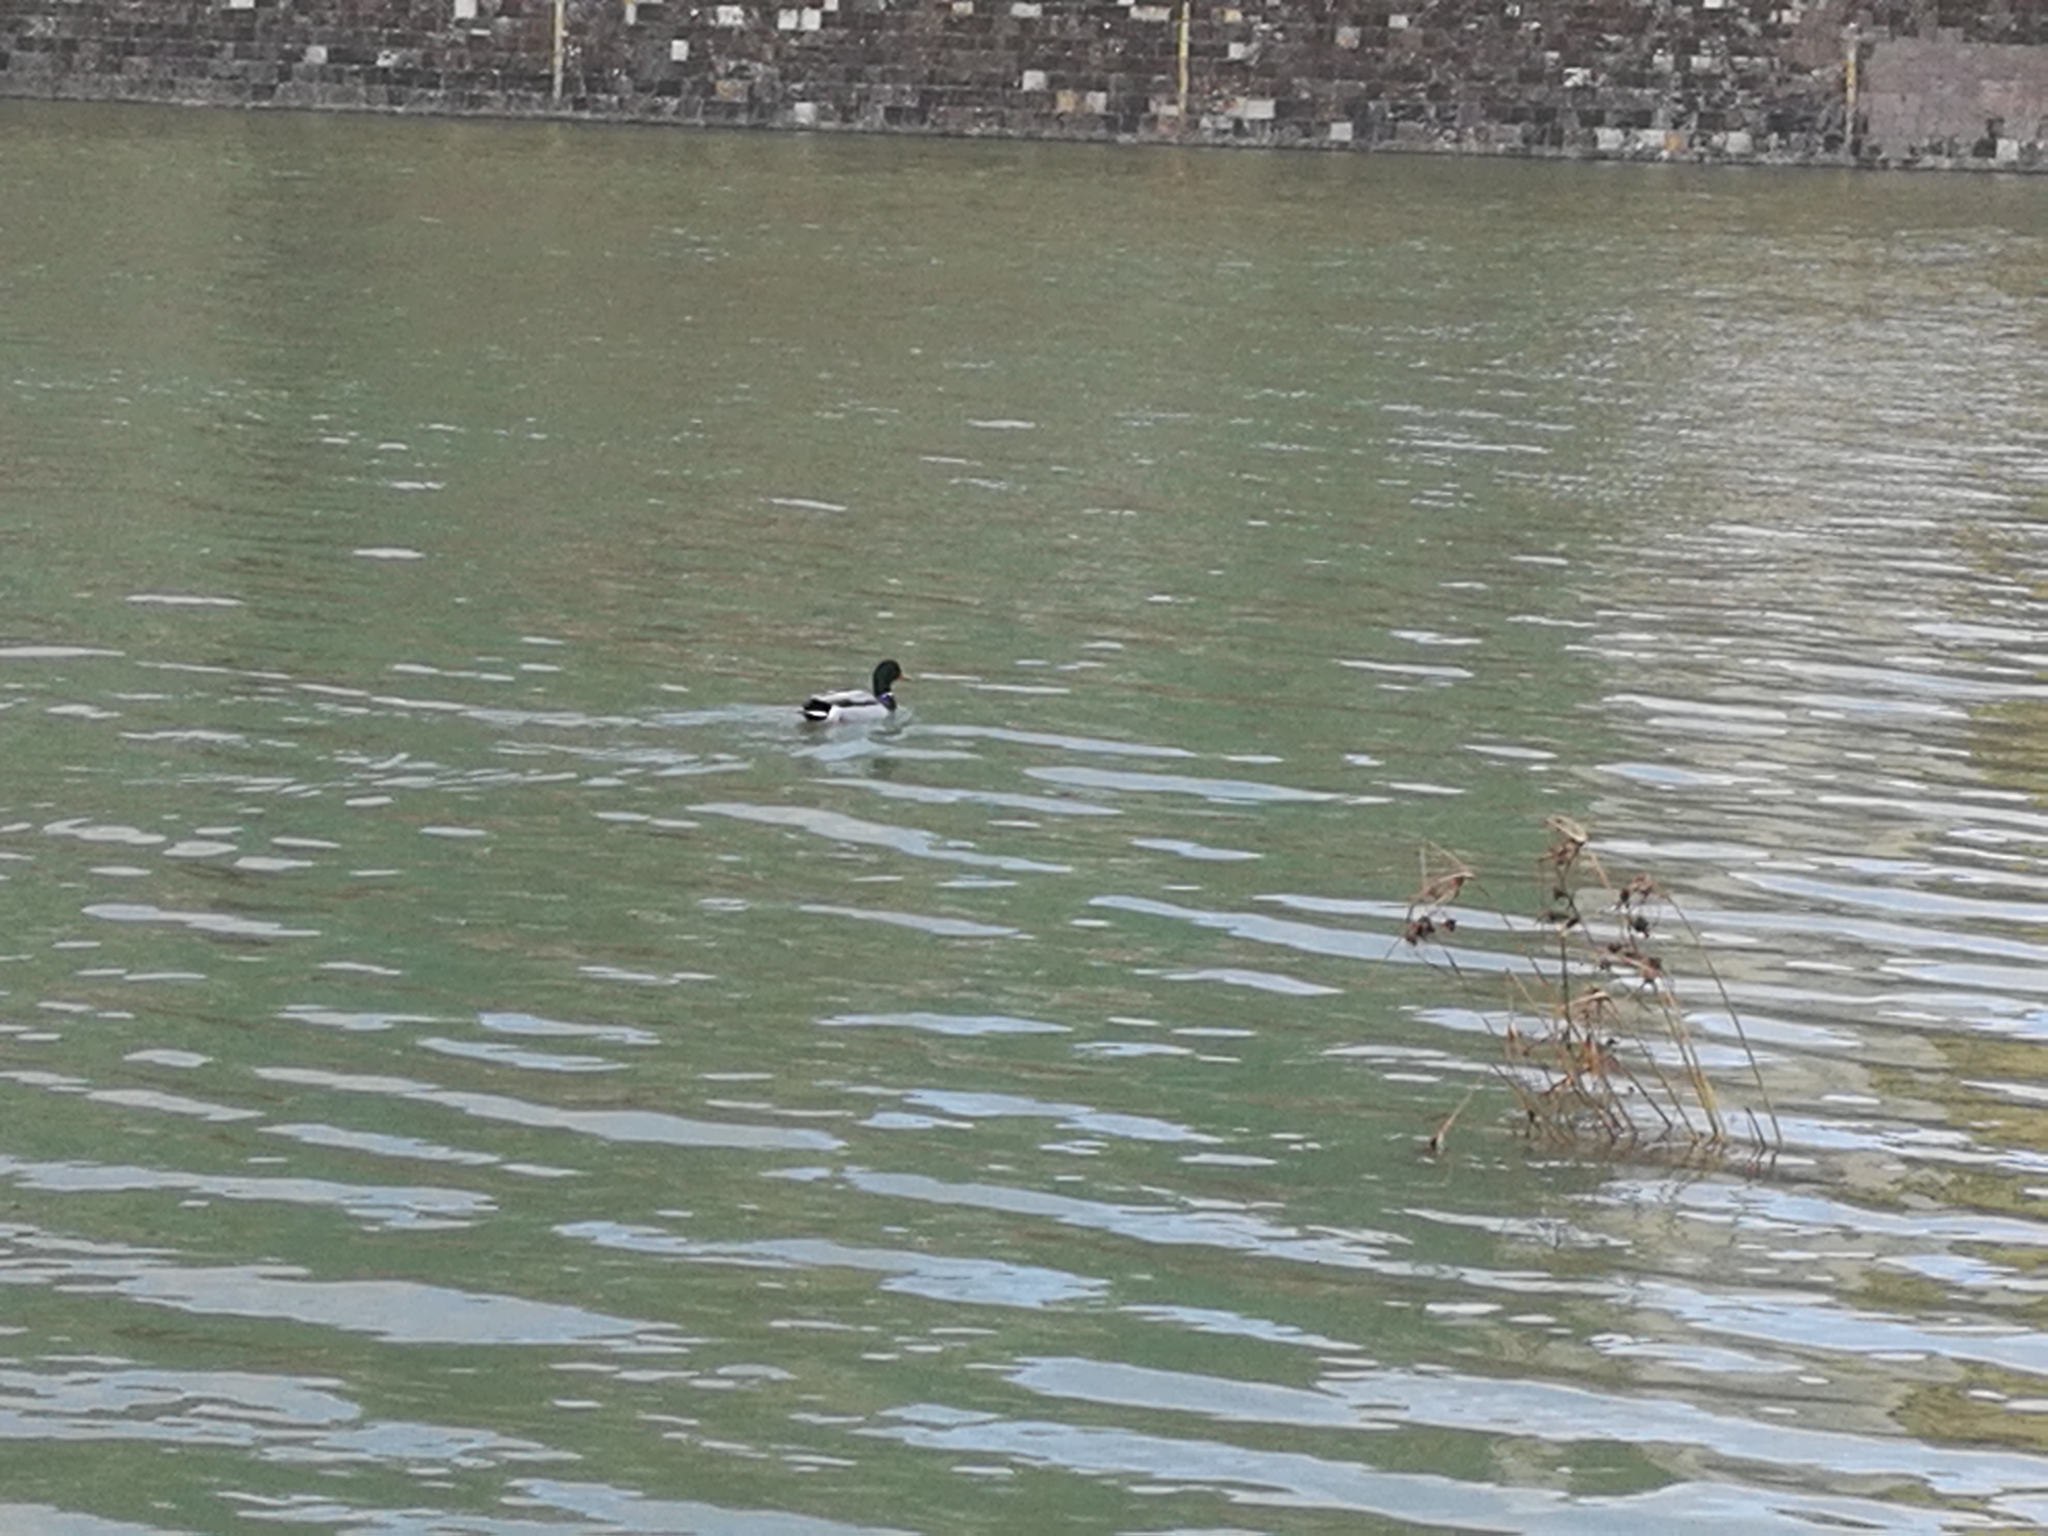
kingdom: Animalia
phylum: Chordata
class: Aves
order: Anseriformes
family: Anatidae
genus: Anas
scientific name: Anas platyrhynchos
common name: Mallard
